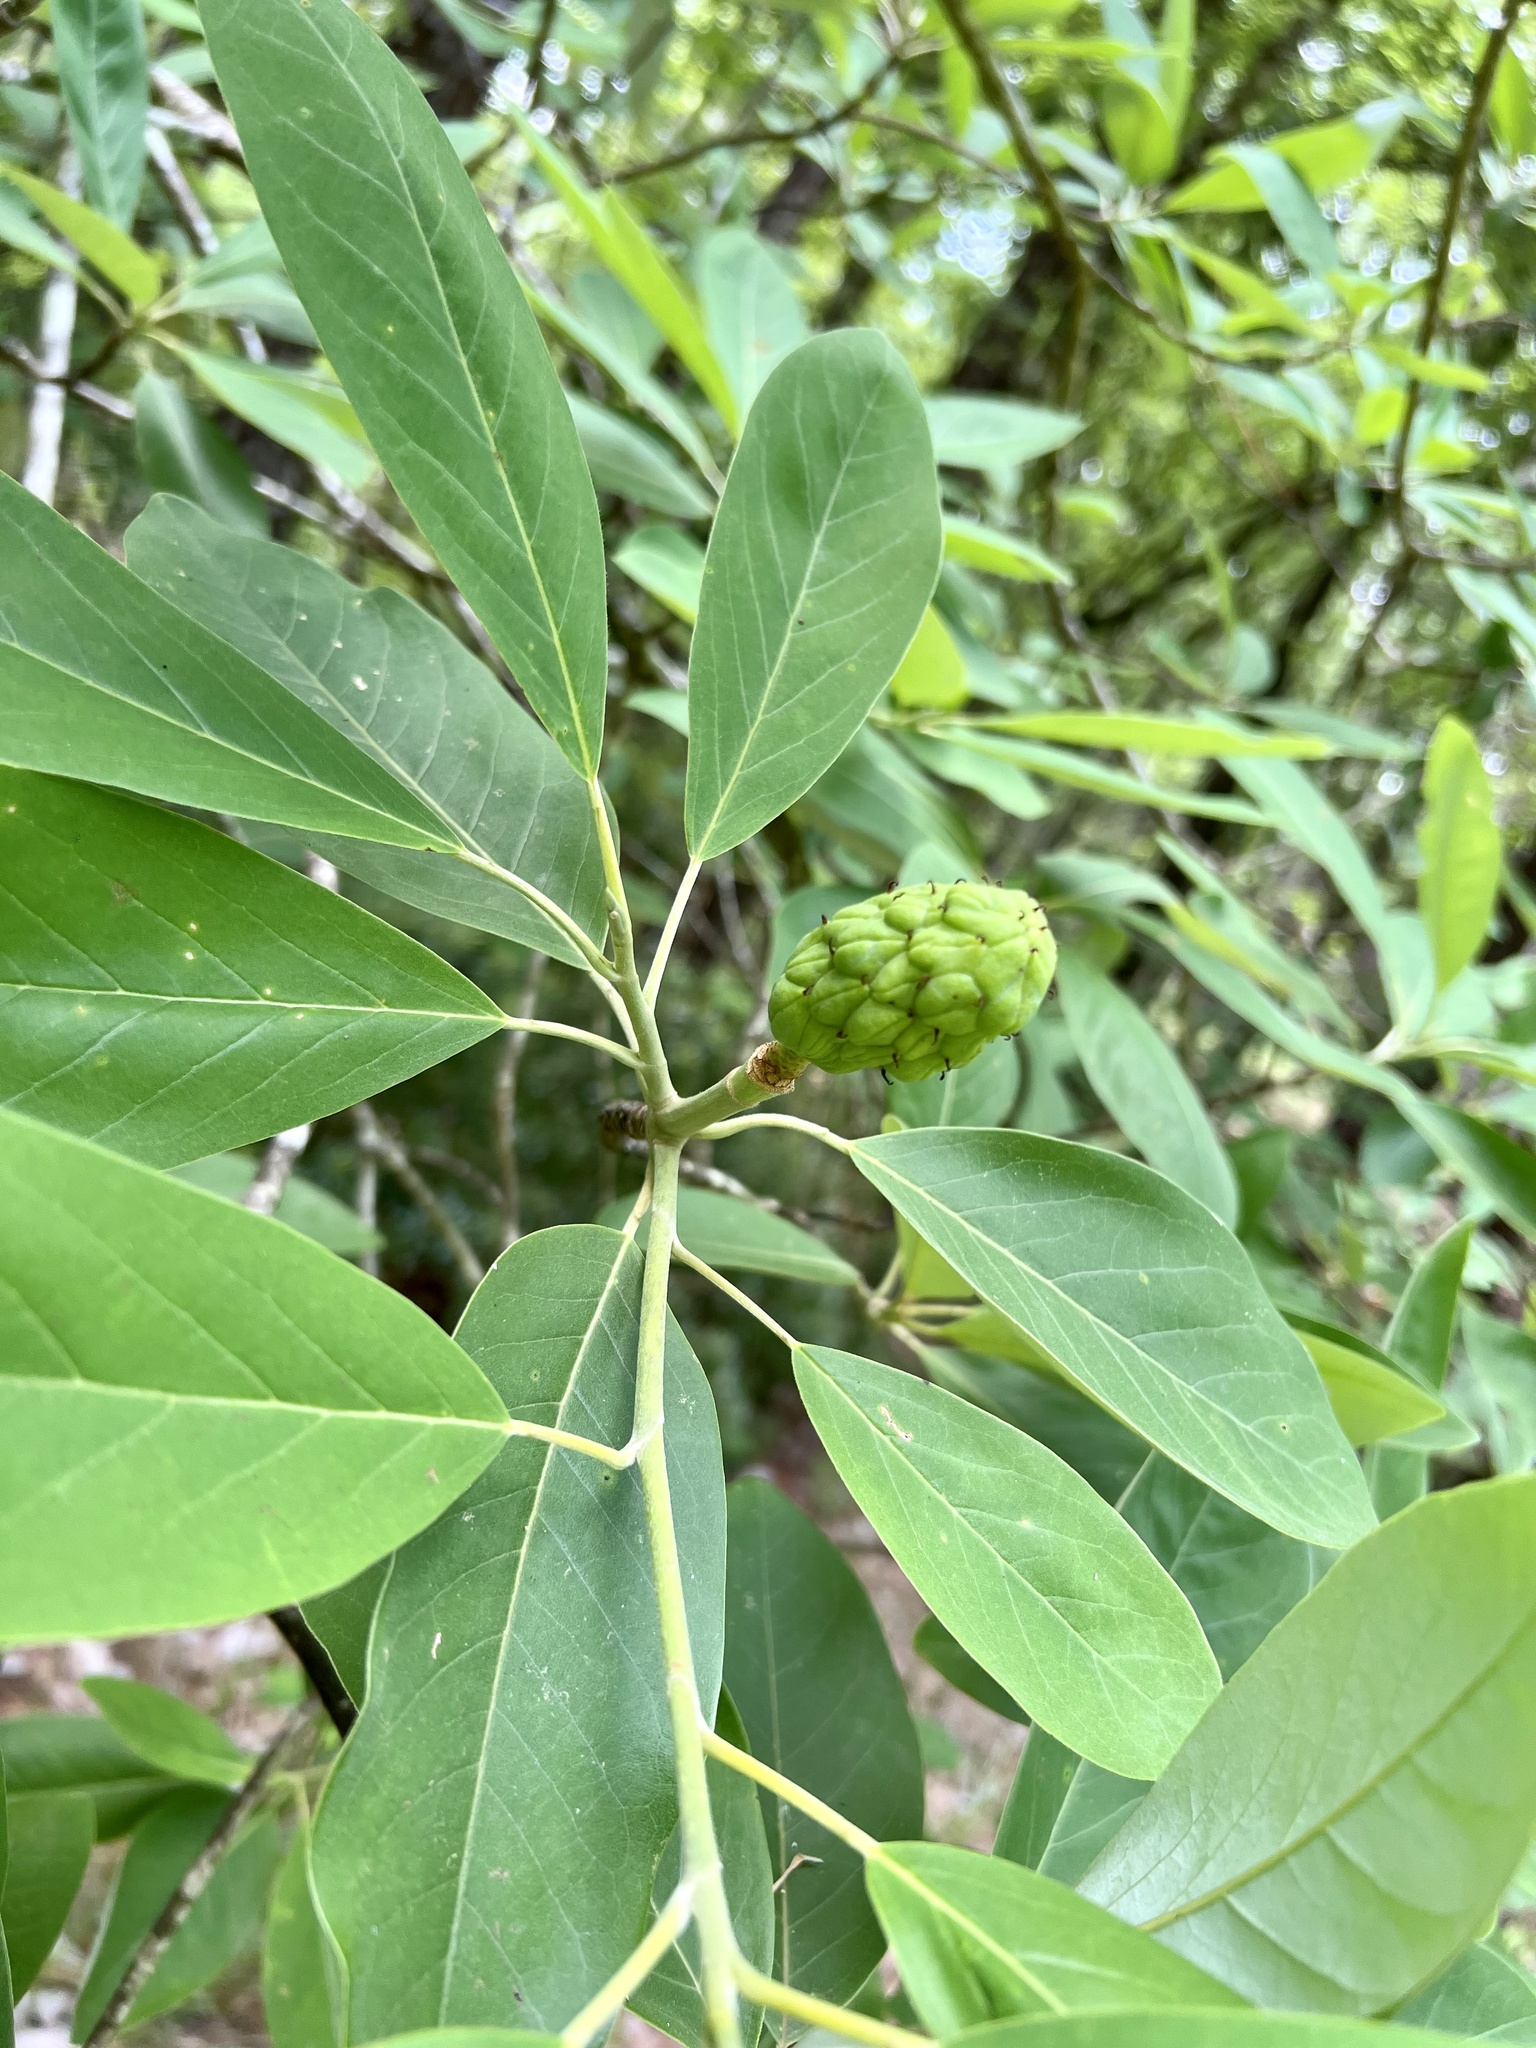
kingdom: Plantae
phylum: Tracheophyta
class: Magnoliopsida
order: Magnoliales
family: Magnoliaceae
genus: Magnolia
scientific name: Magnolia virginiana
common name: Swamp bay
